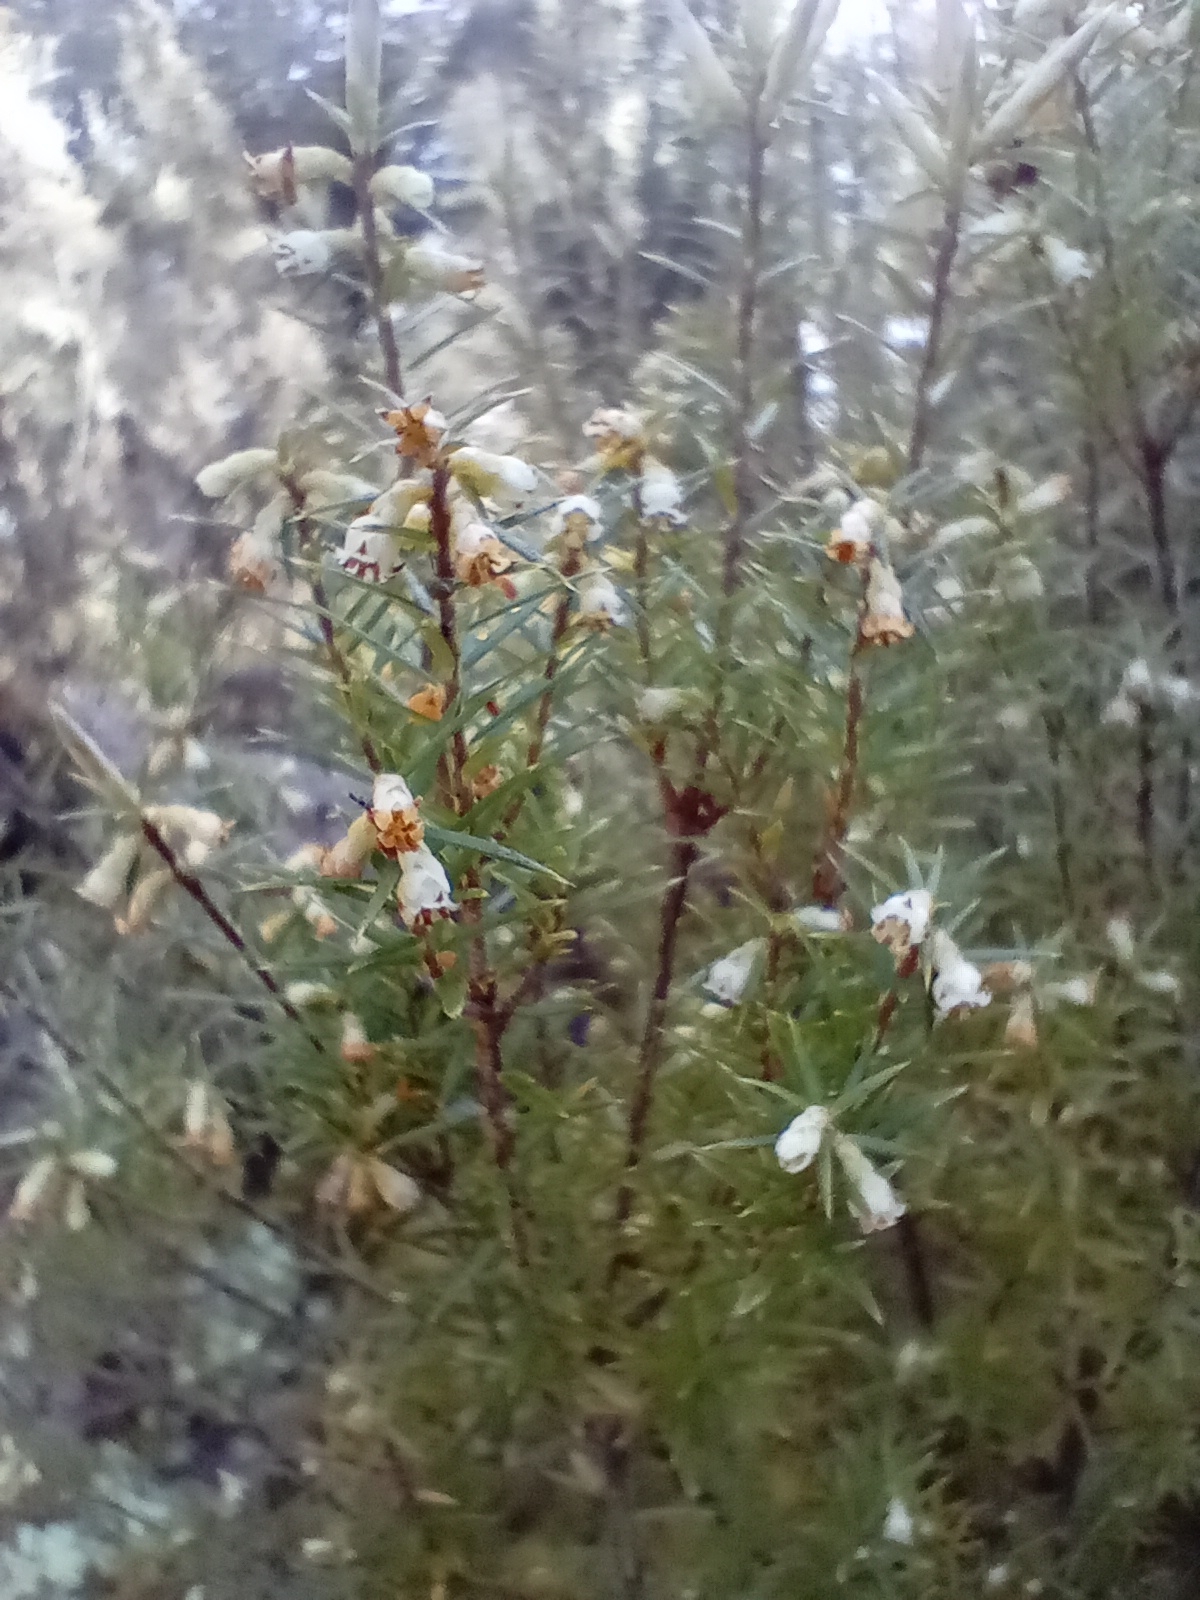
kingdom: Plantae
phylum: Tracheophyta
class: Magnoliopsida
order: Ericales
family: Ericaceae
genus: Leptecophylla
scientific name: Leptecophylla juniperina
